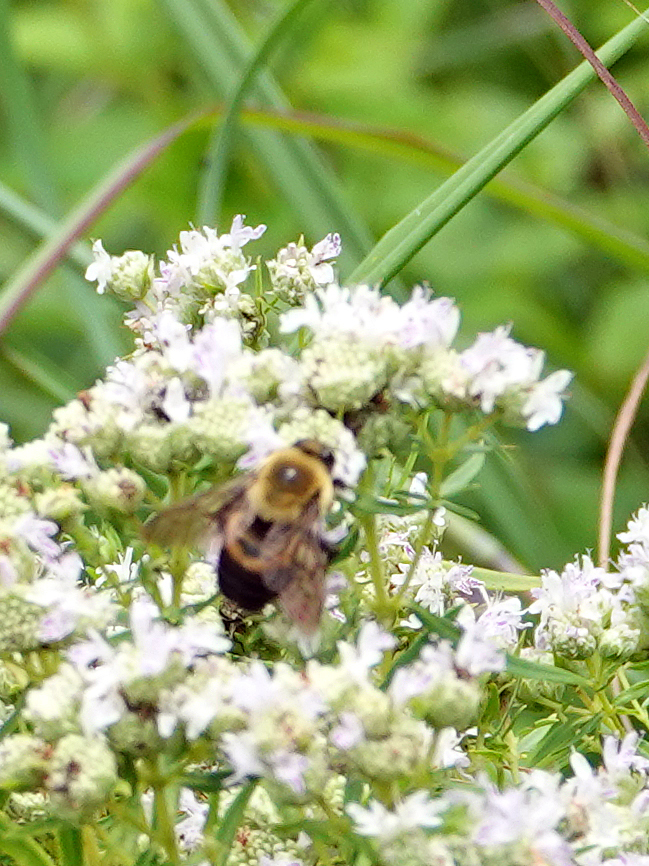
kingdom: Animalia
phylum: Arthropoda
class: Insecta
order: Hymenoptera
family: Apidae
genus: Bombus
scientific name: Bombus griseocollis
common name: Brown-belted bumble bee
